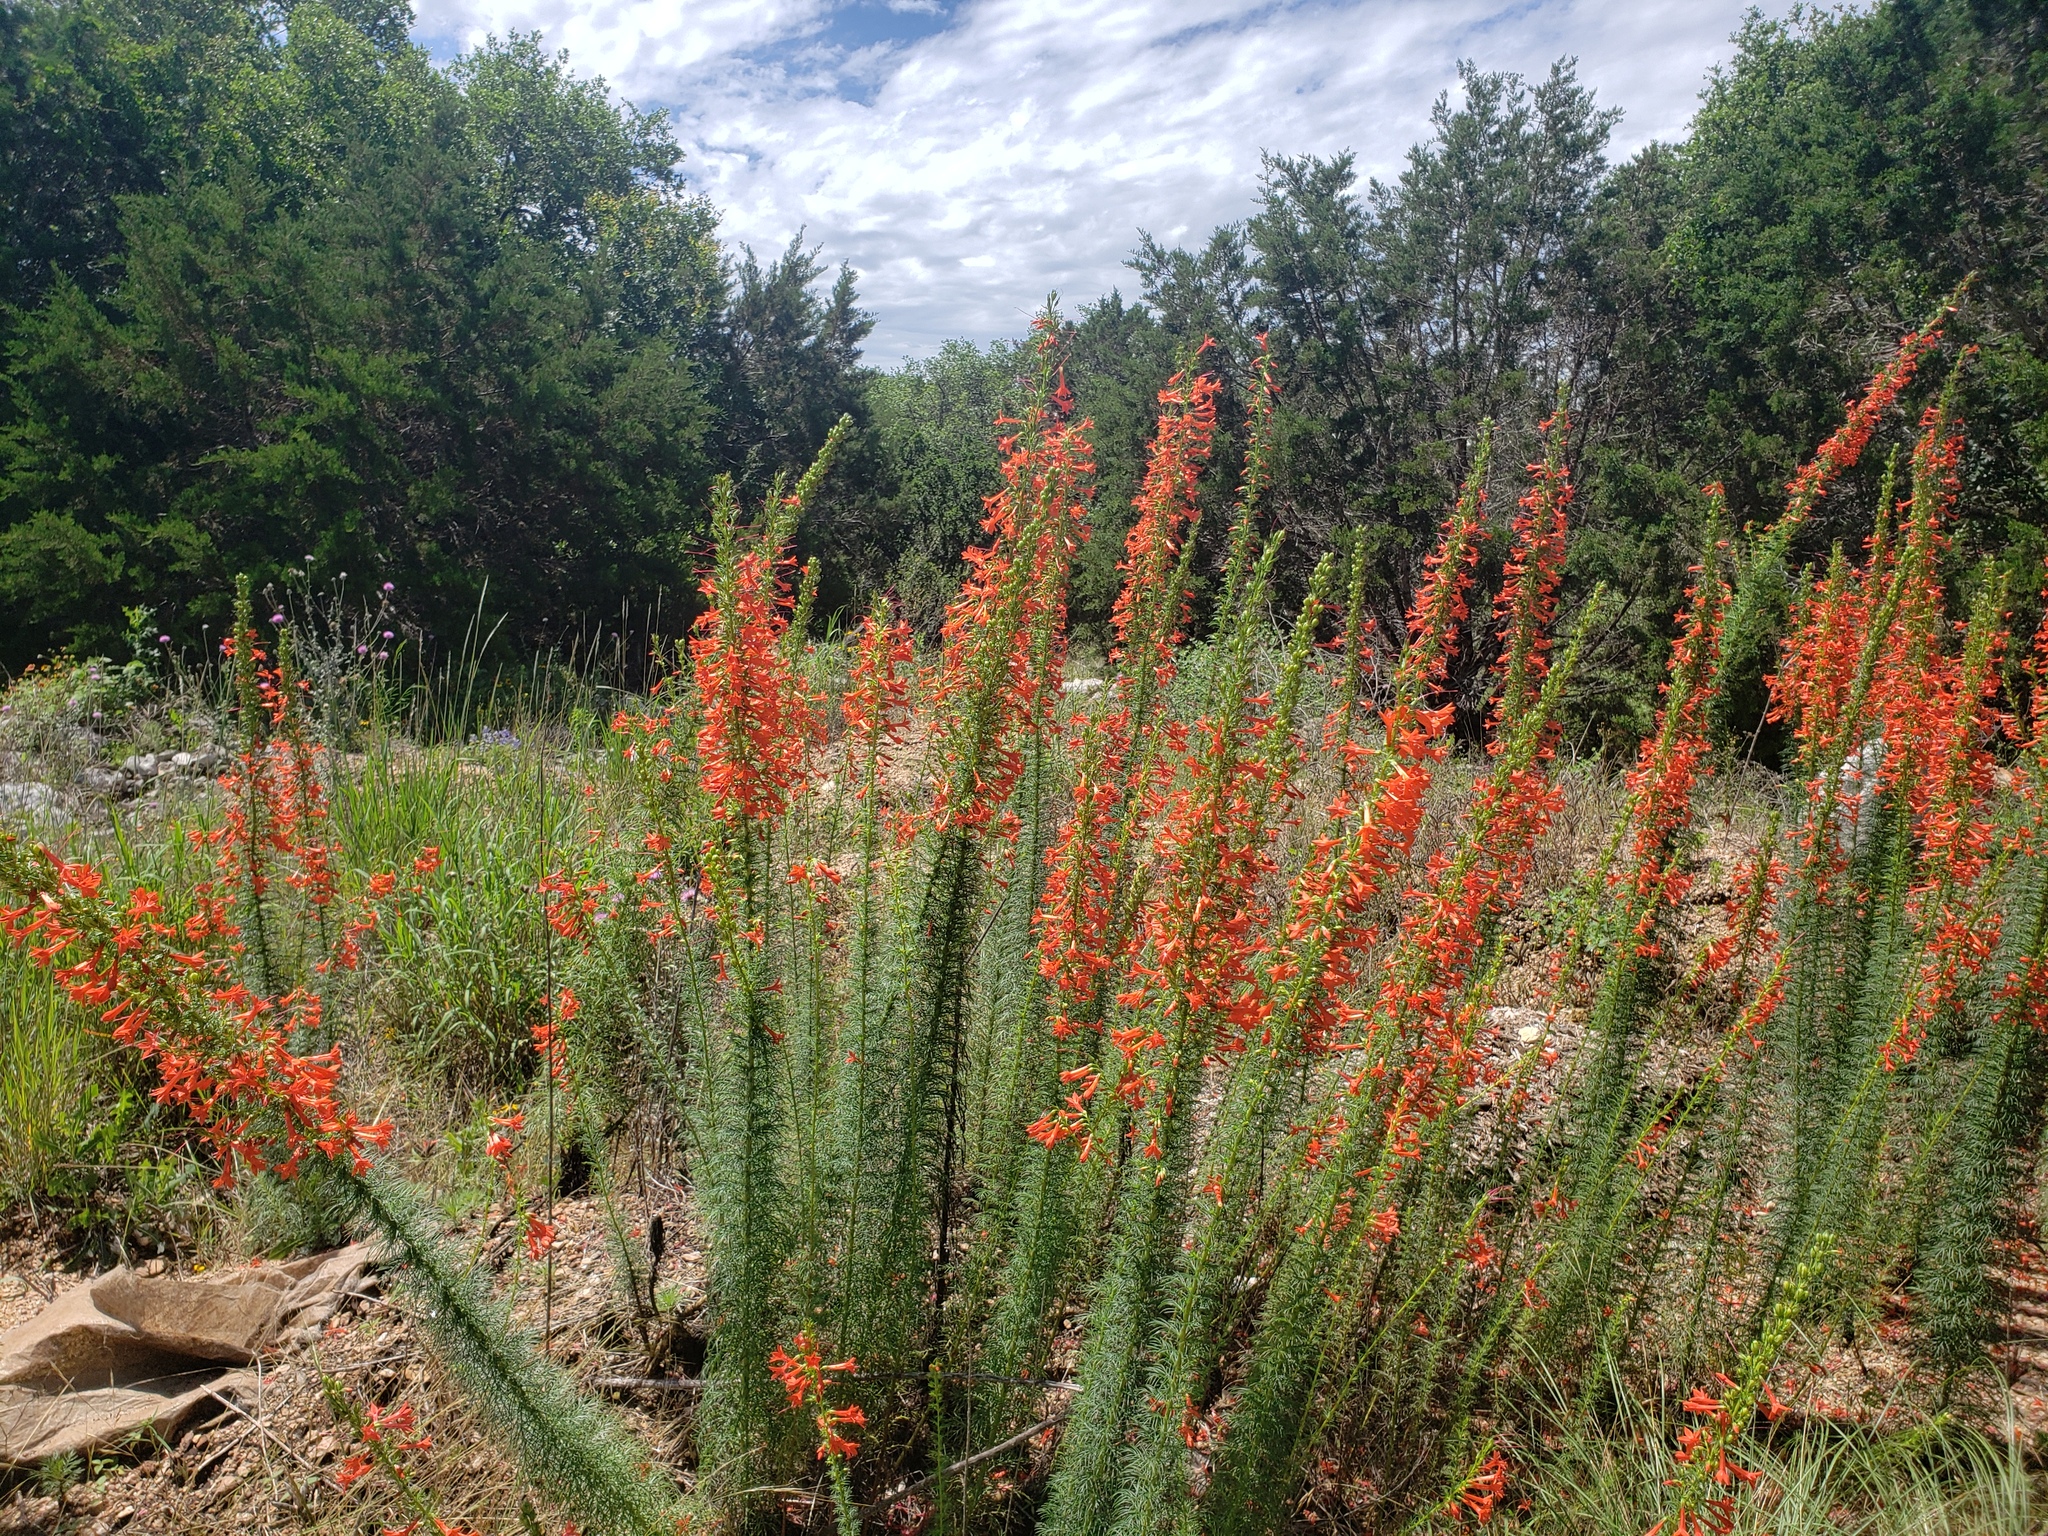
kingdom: Plantae
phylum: Tracheophyta
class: Magnoliopsida
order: Ericales
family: Polemoniaceae
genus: Ipomopsis
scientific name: Ipomopsis rubra
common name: Skyrocket
